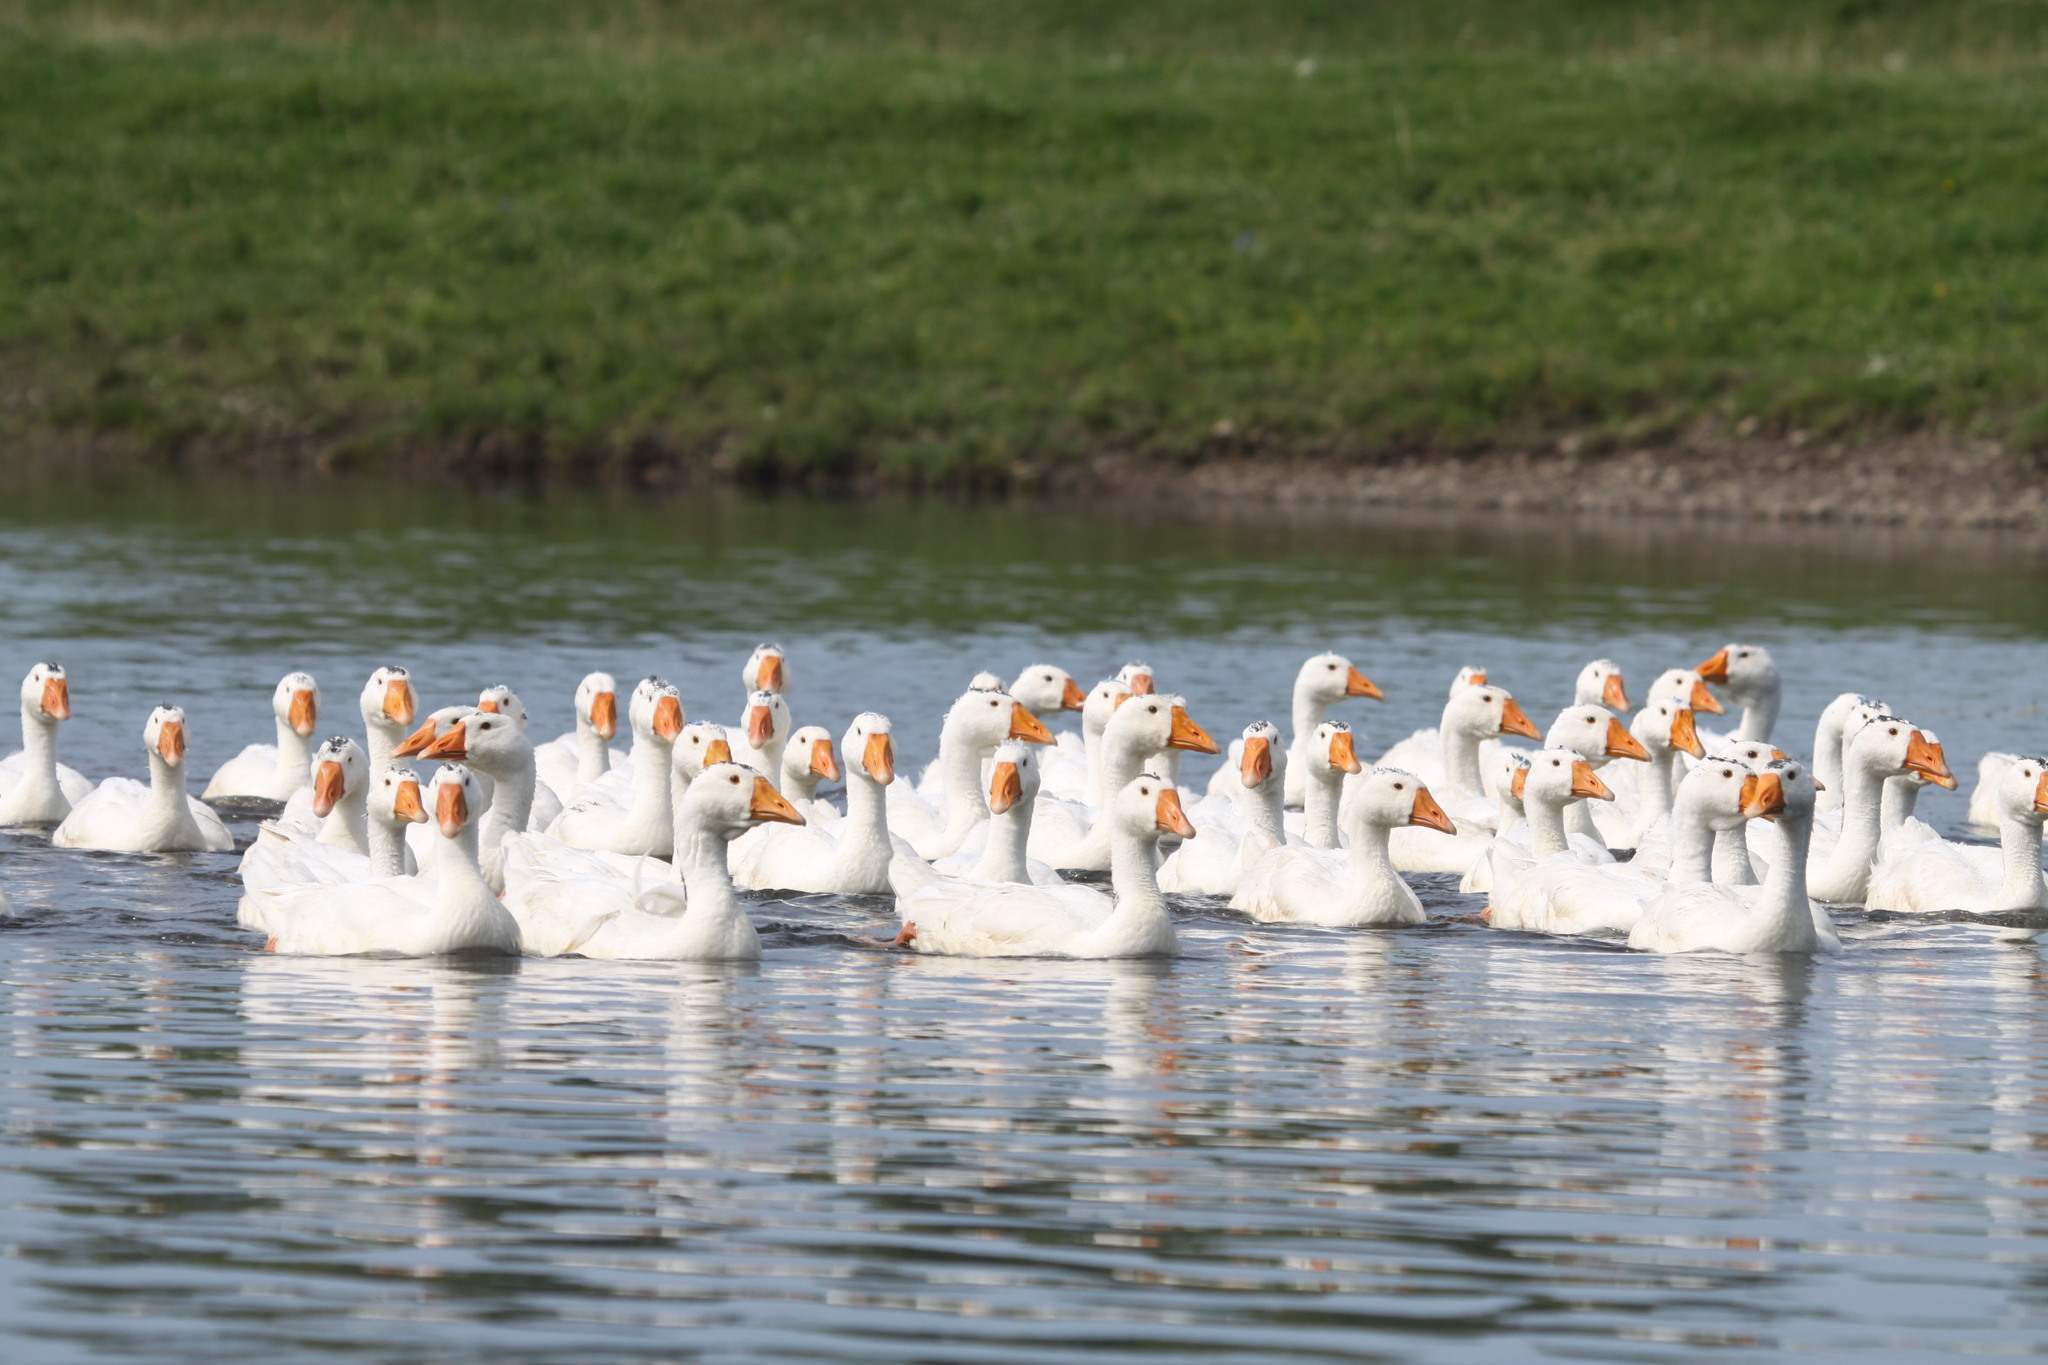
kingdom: Animalia
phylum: Chordata
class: Aves
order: Anseriformes
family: Anatidae
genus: Anser
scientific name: Anser anser
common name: Greylag goose
